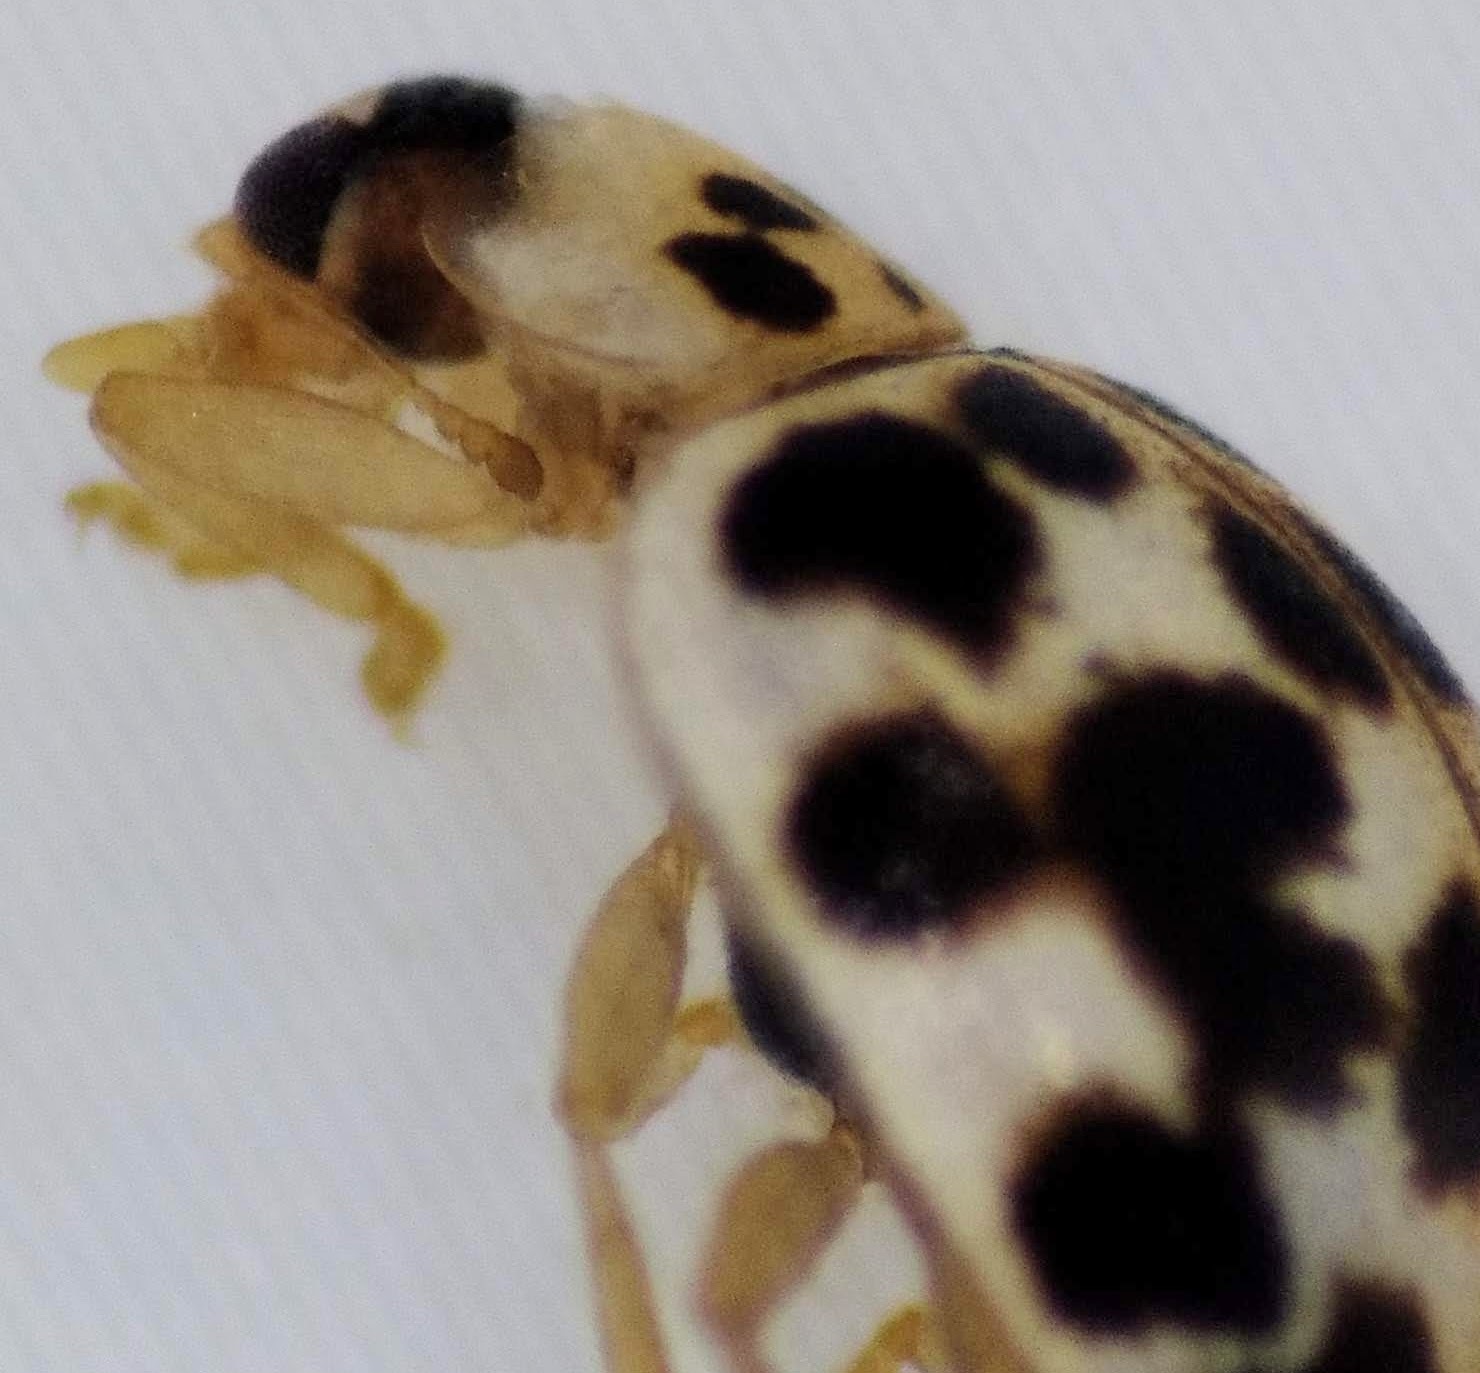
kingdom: Animalia
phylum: Arthropoda
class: Insecta
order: Coleoptera
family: Coccinellidae
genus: Psyllobora
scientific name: Psyllobora vigintimaculata
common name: Ladybird beetle
